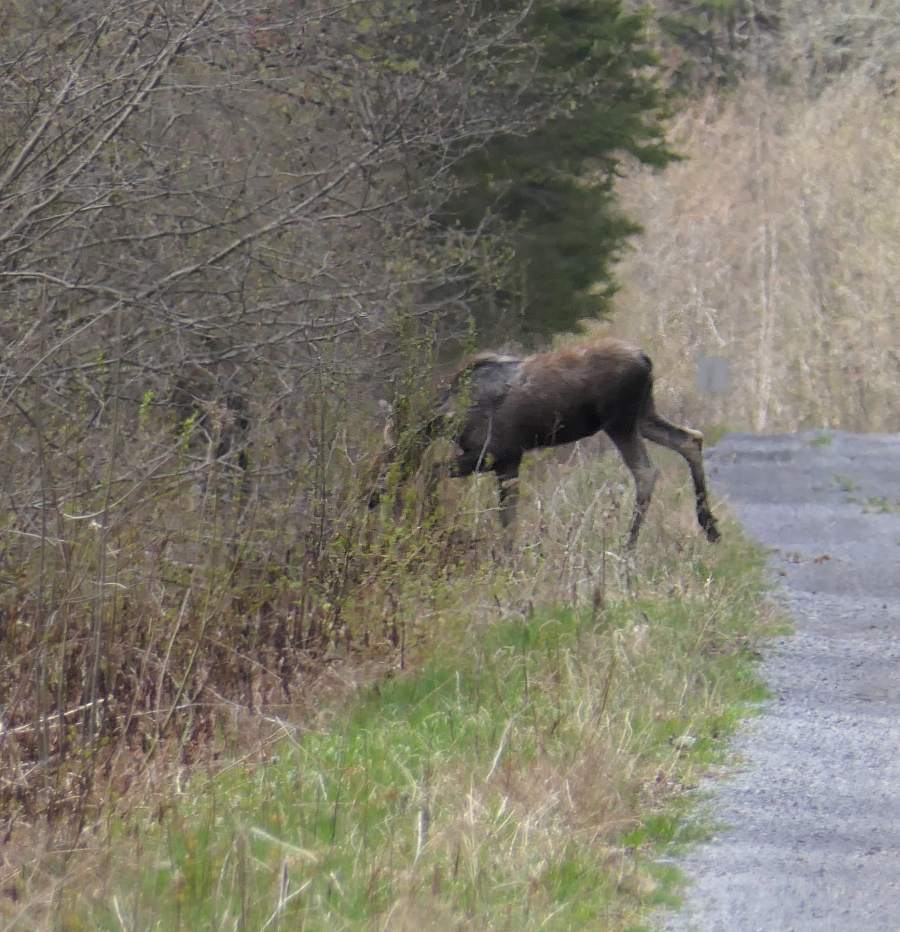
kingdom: Animalia
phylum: Chordata
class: Mammalia
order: Artiodactyla
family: Cervidae
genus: Alces
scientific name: Alces alces
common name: Moose
